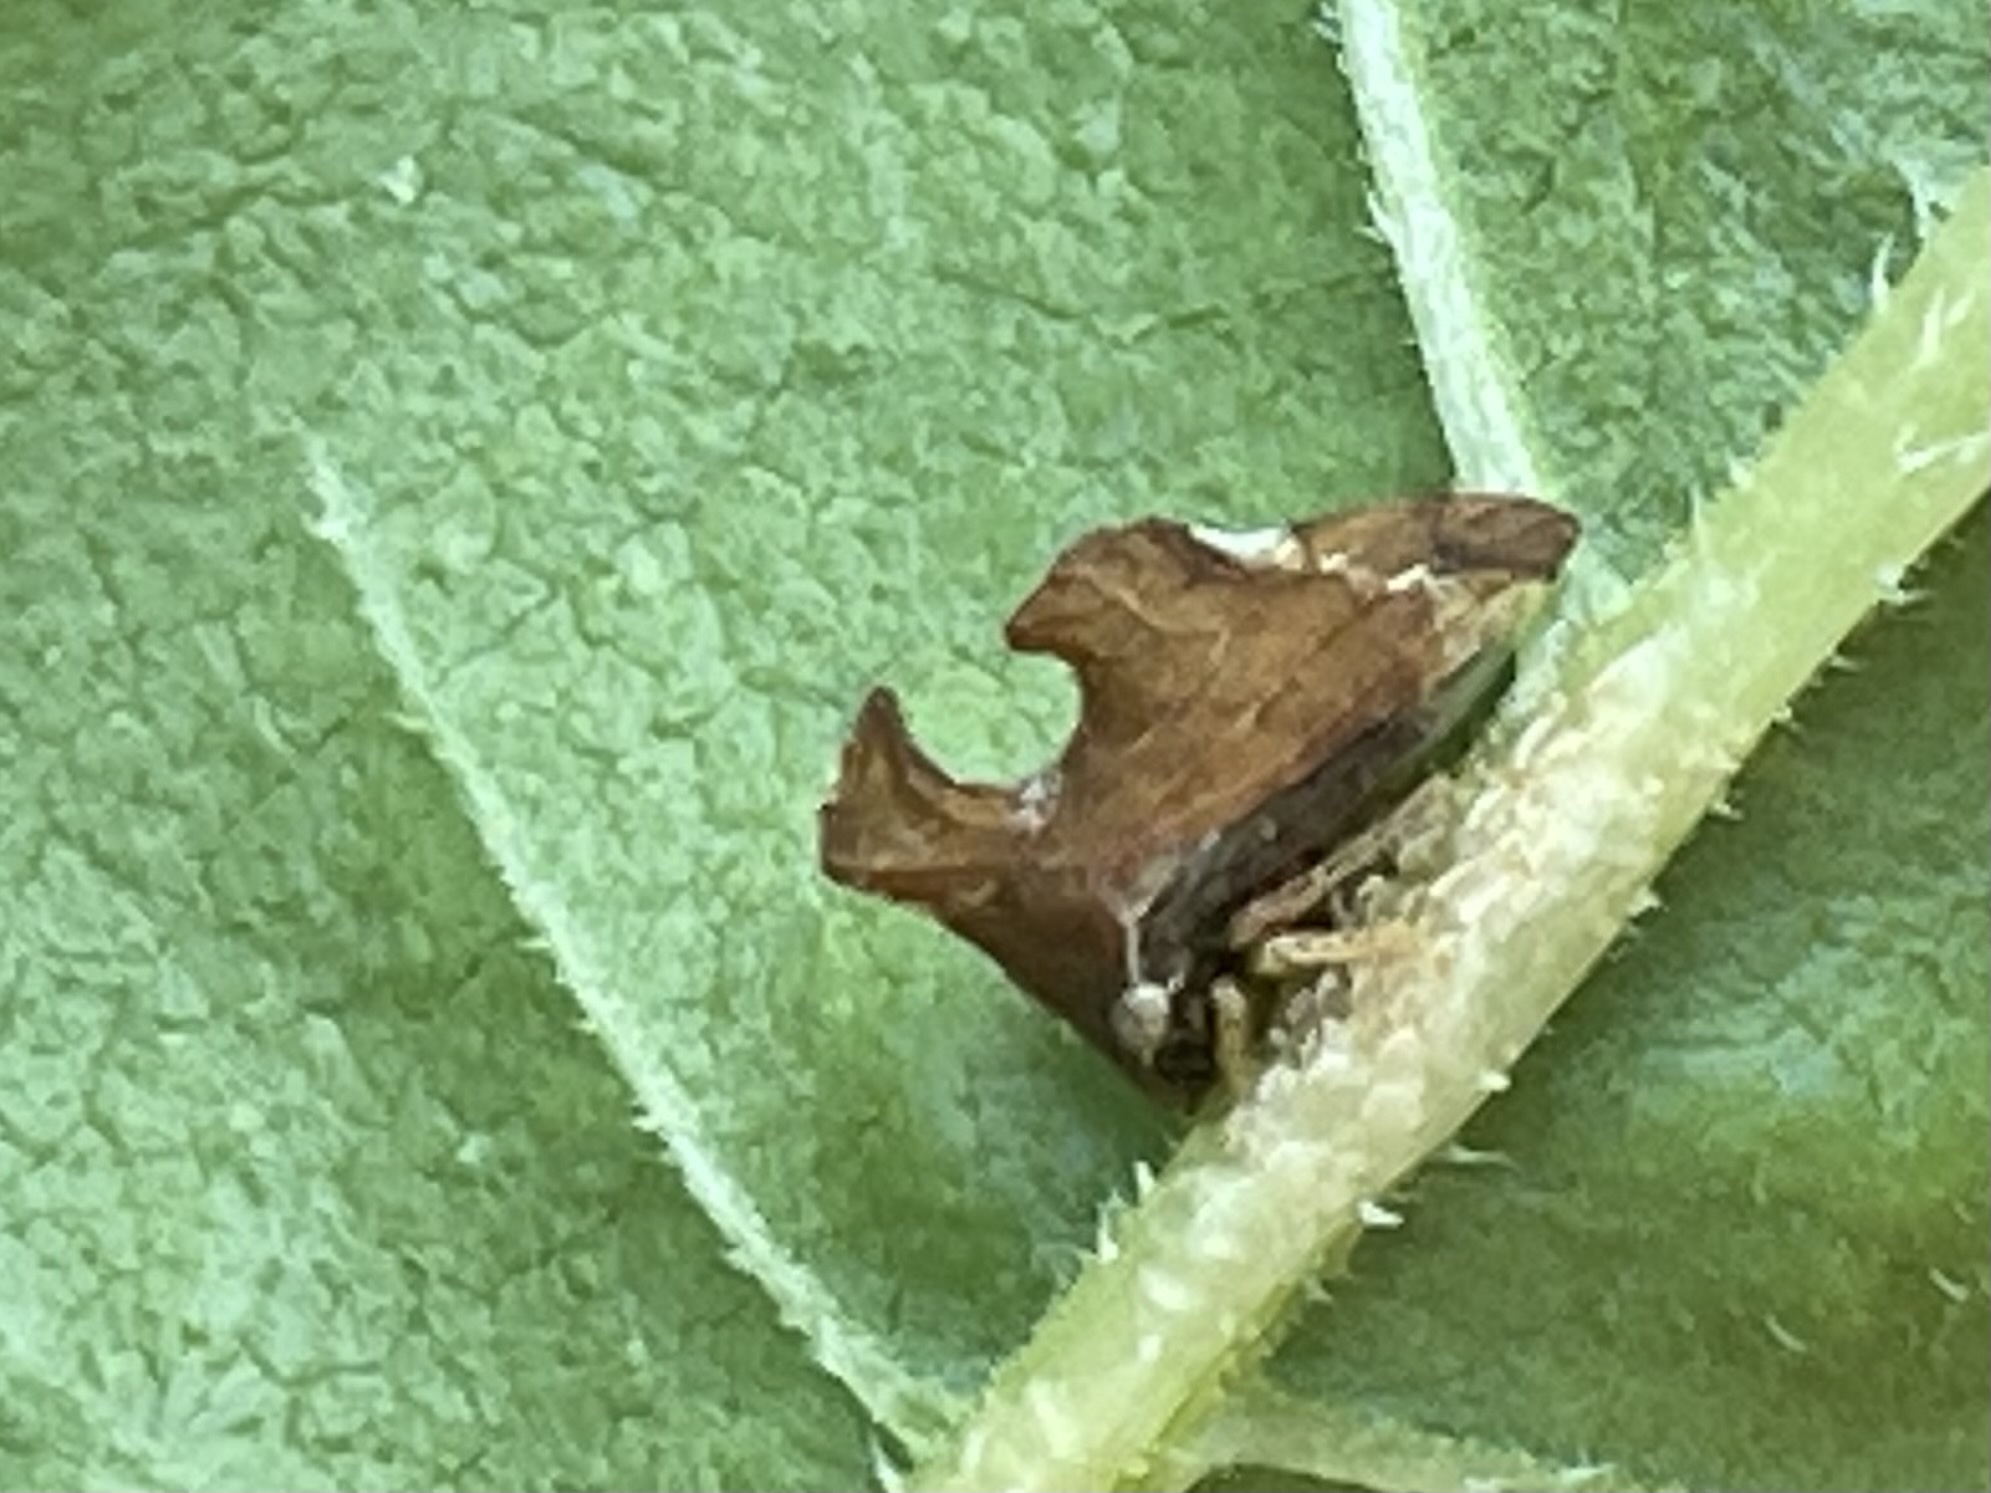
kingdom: Animalia
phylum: Arthropoda
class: Insecta
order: Hemiptera
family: Membracidae
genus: Entylia
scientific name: Entylia carinata
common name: Keeled treehopper
